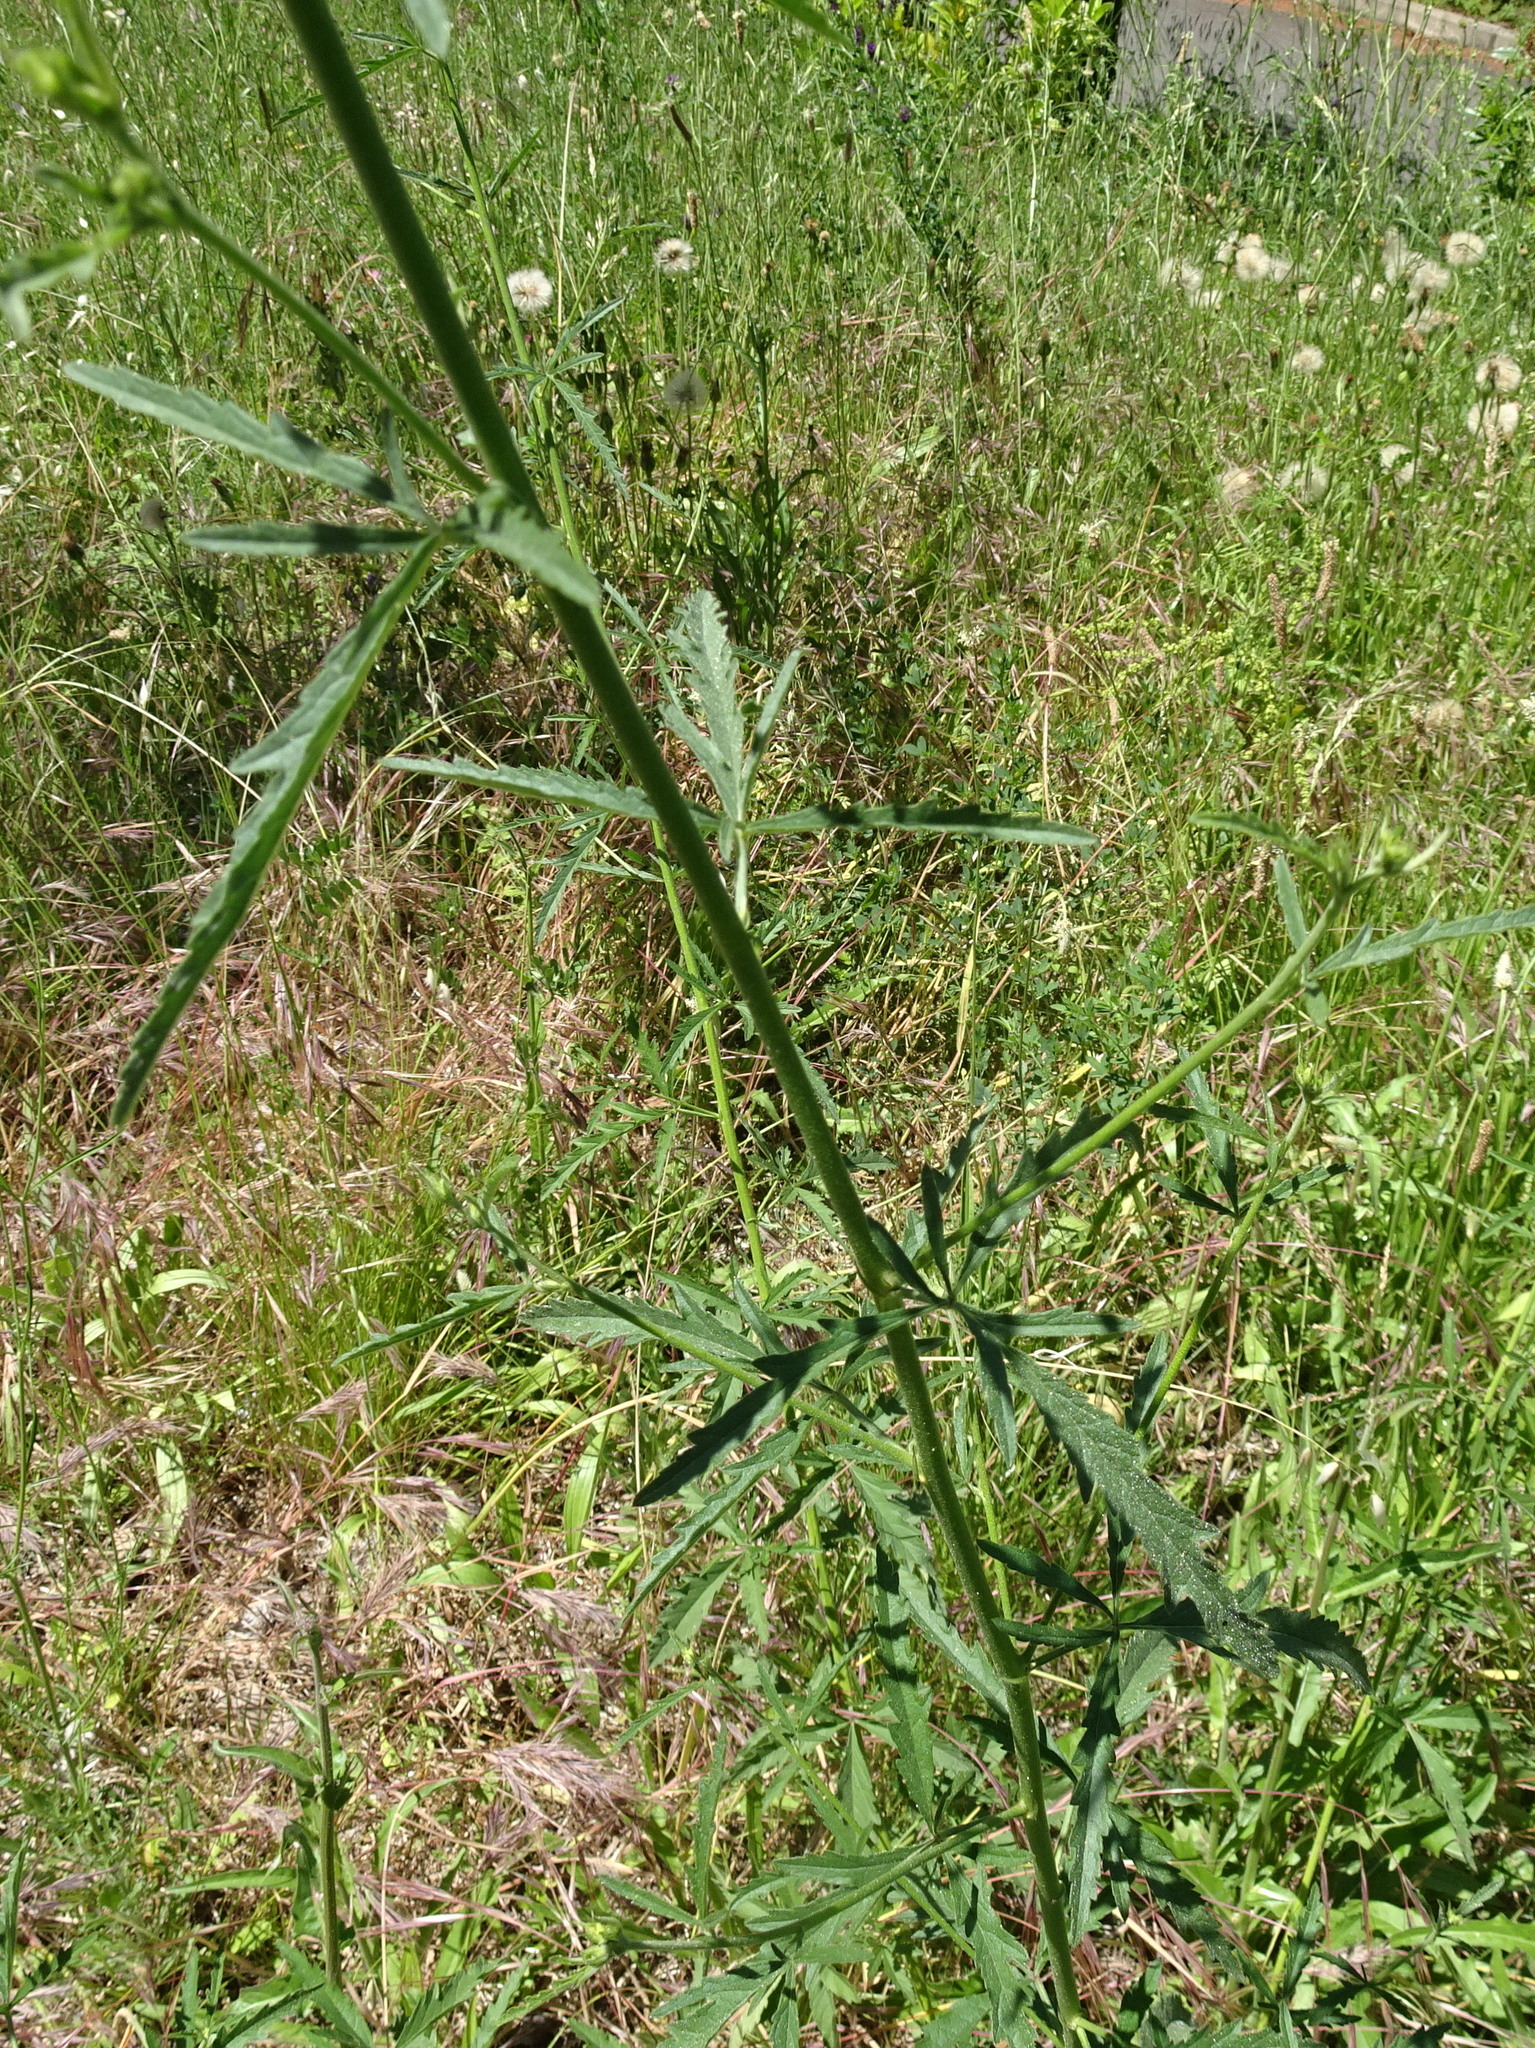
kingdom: Plantae
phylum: Tracheophyta
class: Magnoliopsida
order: Malvales
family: Malvaceae
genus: Althaea
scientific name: Althaea cannabina
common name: Palm-leaf marshmallow
